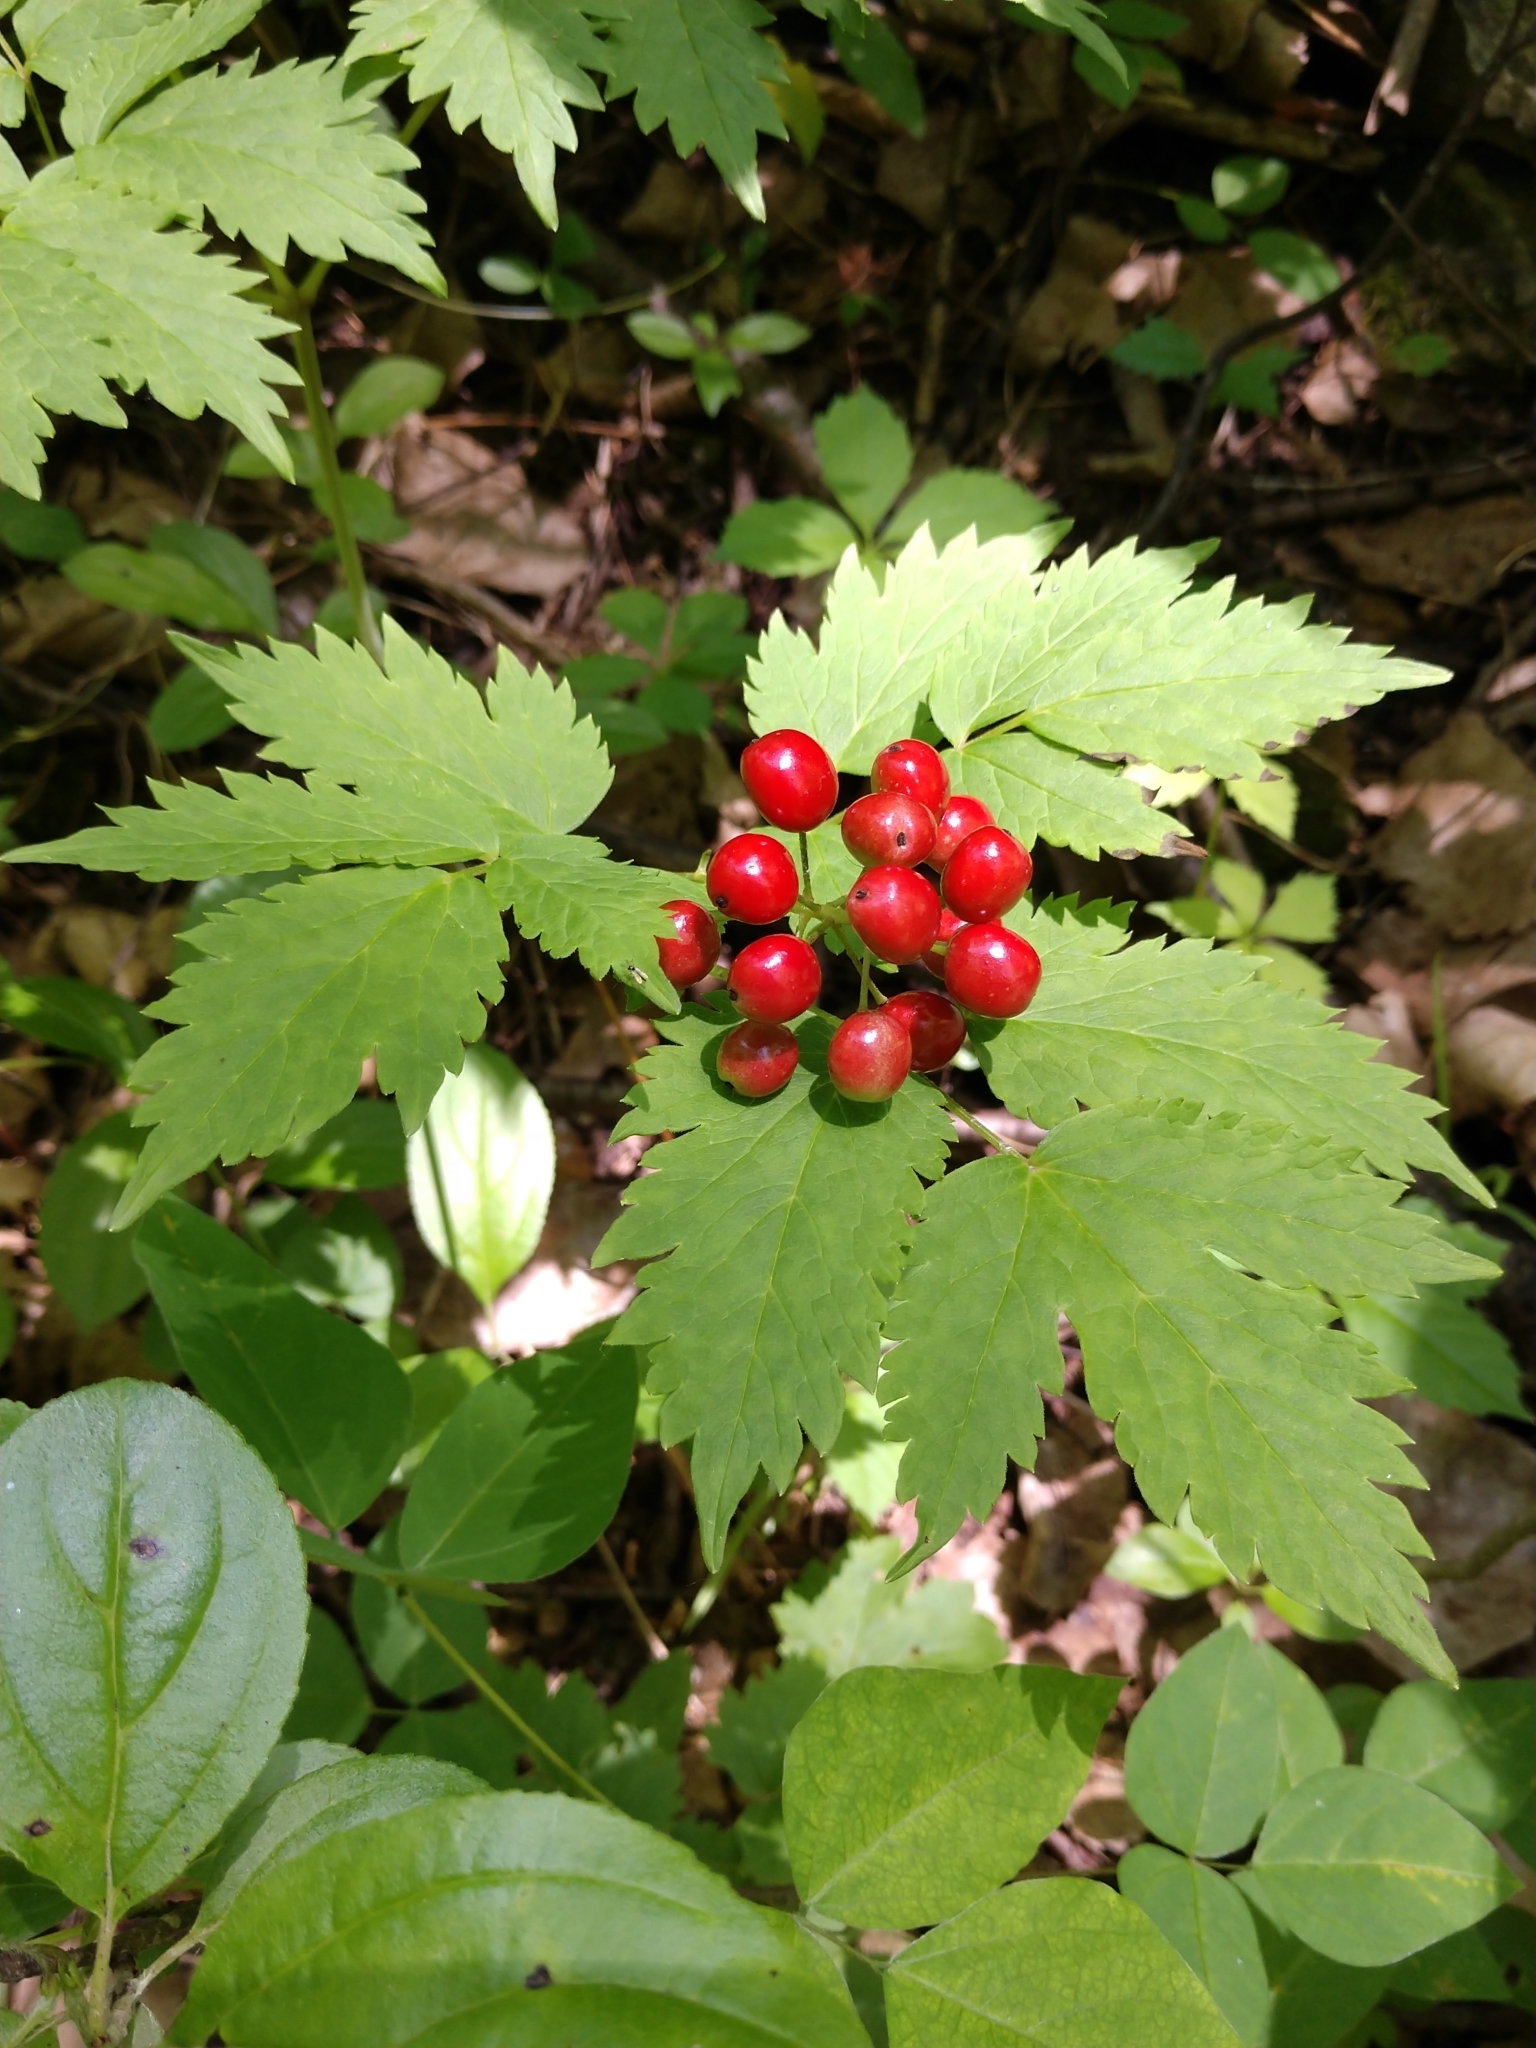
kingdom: Plantae
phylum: Tracheophyta
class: Magnoliopsida
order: Ranunculales
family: Ranunculaceae
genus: Actaea
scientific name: Actaea rubra
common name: Red baneberry
